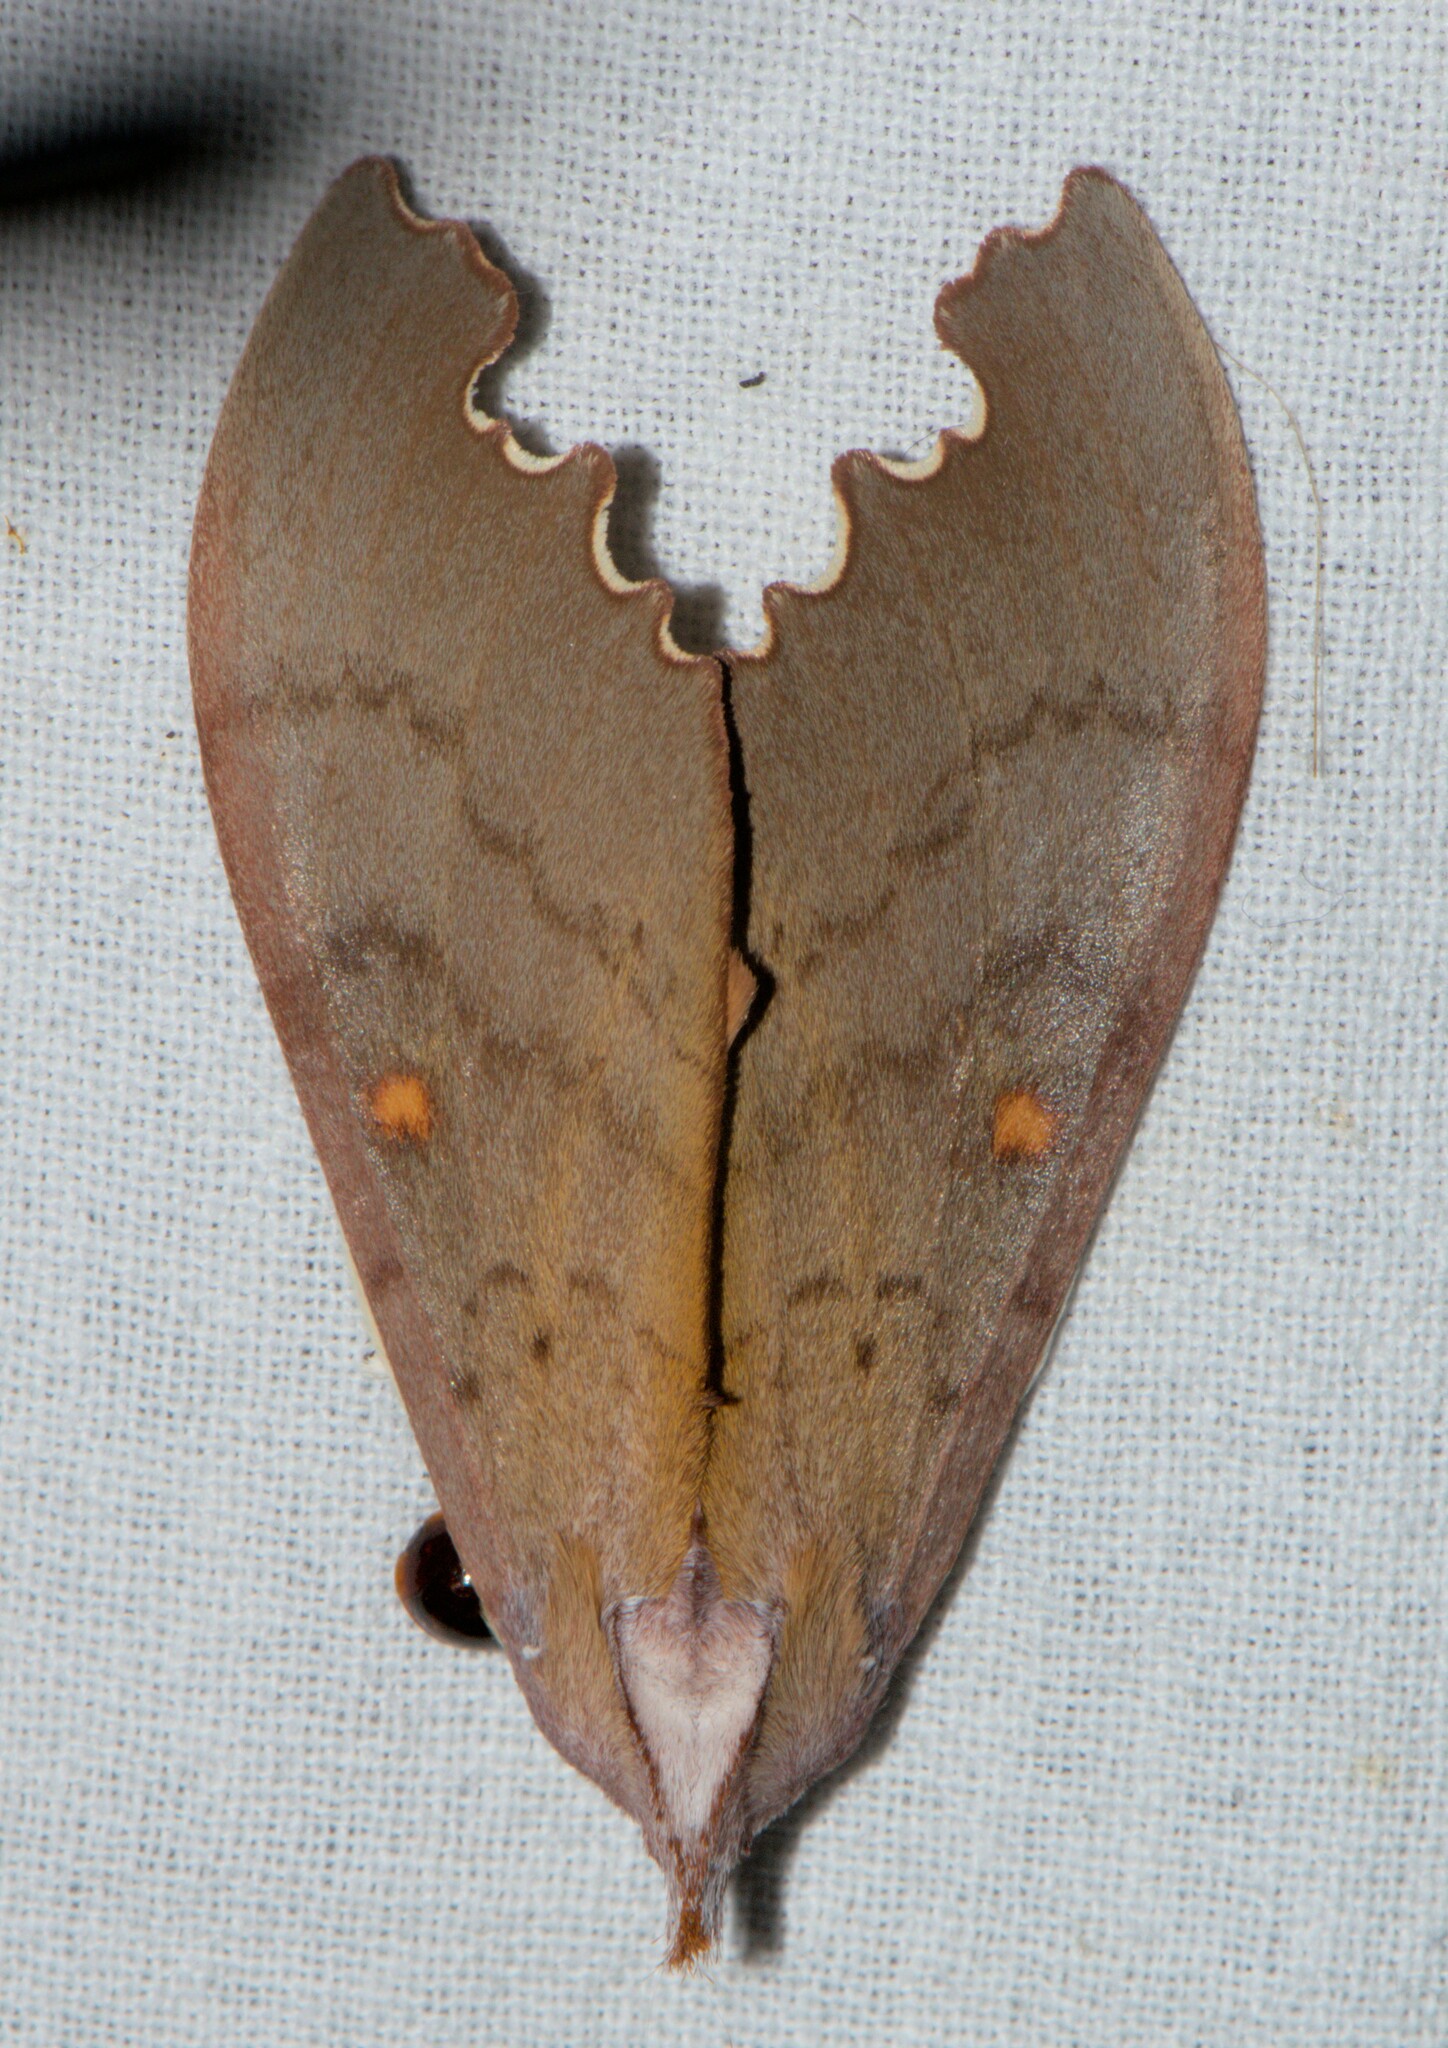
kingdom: Animalia
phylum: Arthropoda
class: Insecta
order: Lepidoptera
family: Notodontidae
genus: Euhampsonia
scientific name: Euhampsonia niveiceps
